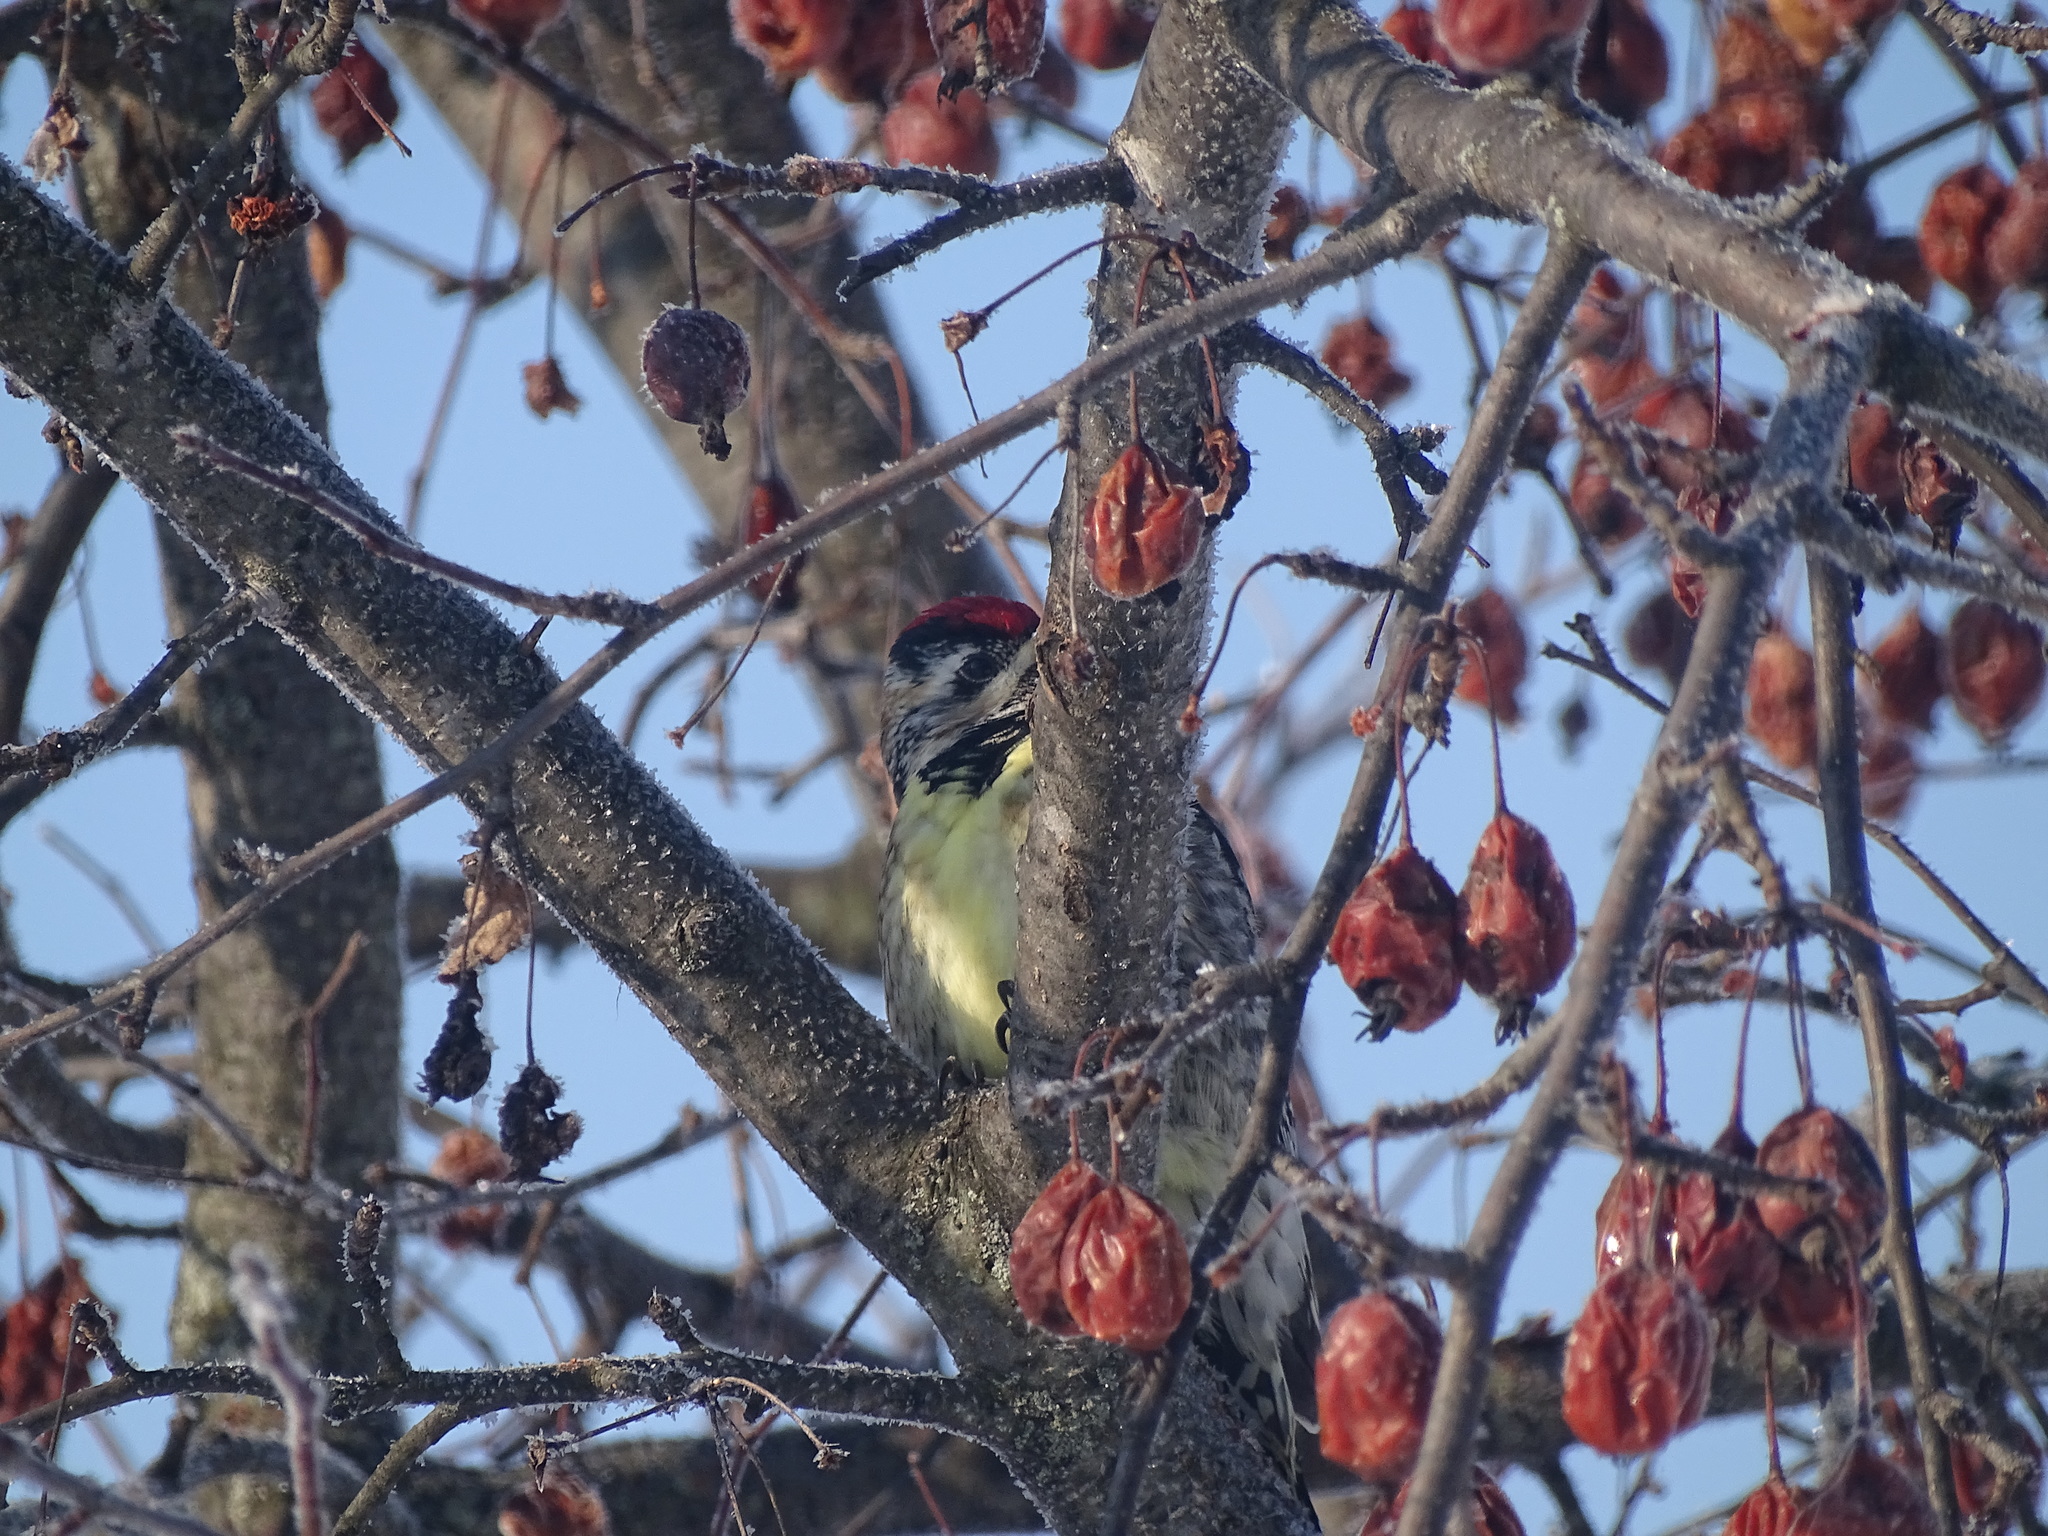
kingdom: Animalia
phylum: Chordata
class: Aves
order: Piciformes
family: Picidae
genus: Sphyrapicus
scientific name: Sphyrapicus varius
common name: Yellow-bellied sapsucker
